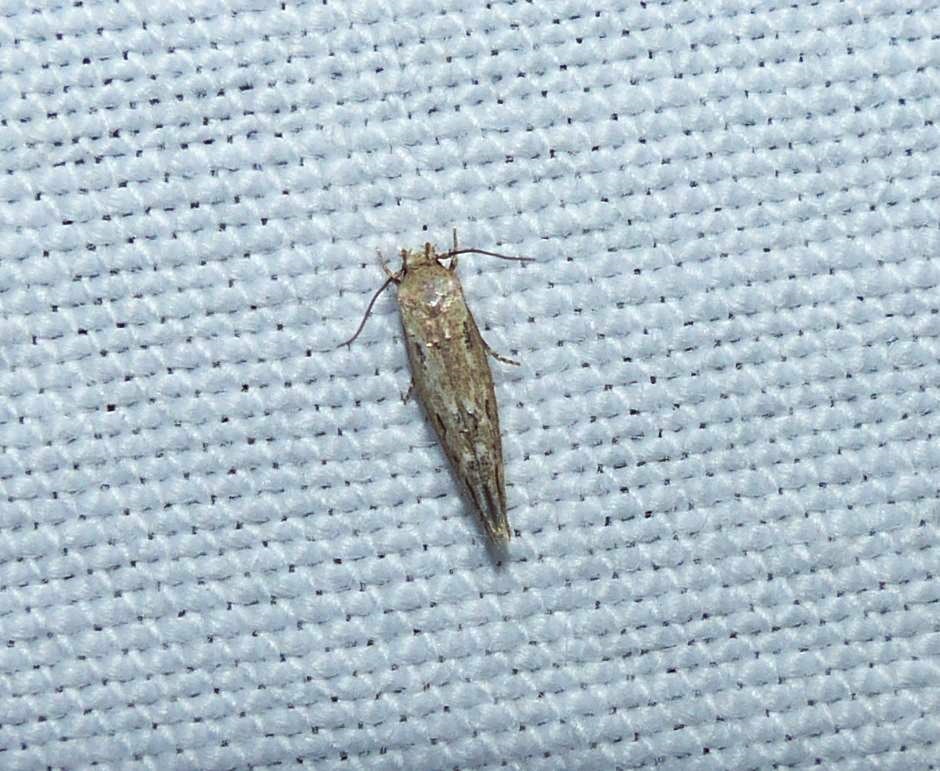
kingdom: Animalia
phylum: Arthropoda
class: Insecta
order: Lepidoptera
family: Momphidae
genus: Mompha
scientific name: Mompha brevivittella
